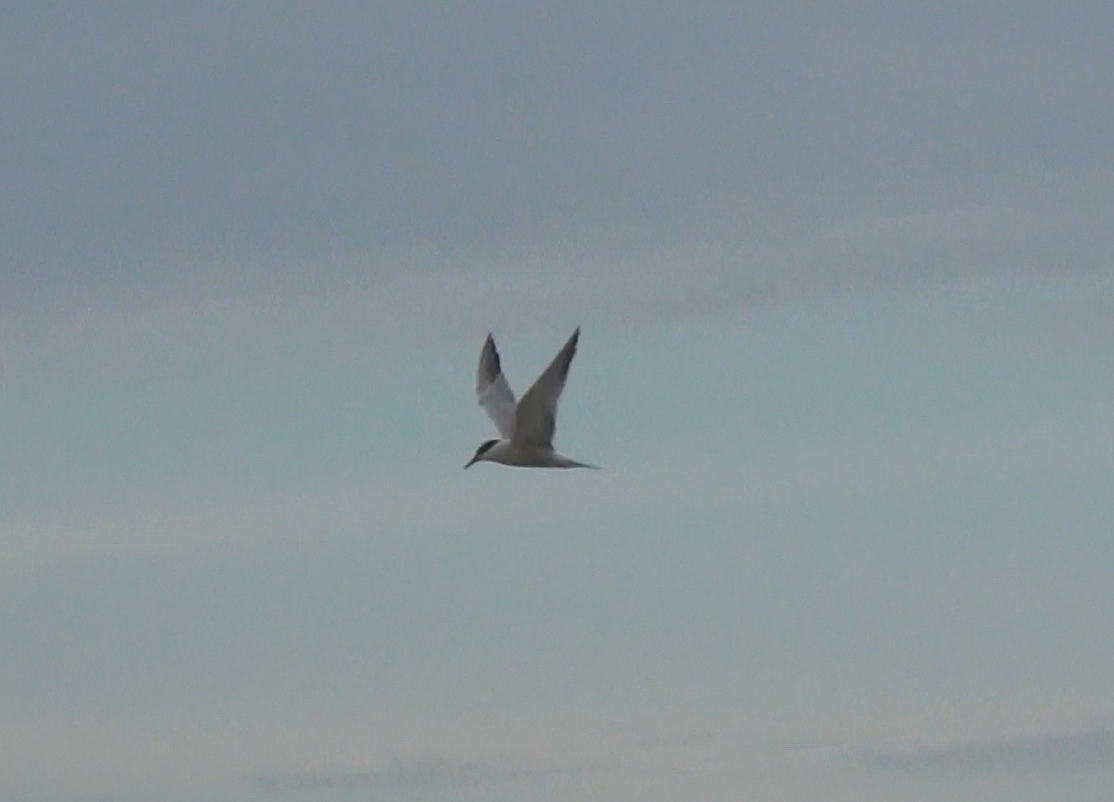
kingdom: Animalia
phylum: Chordata
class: Aves
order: Charadriiformes
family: Laridae
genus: Sterna
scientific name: Sterna hirundo
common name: Common tern
